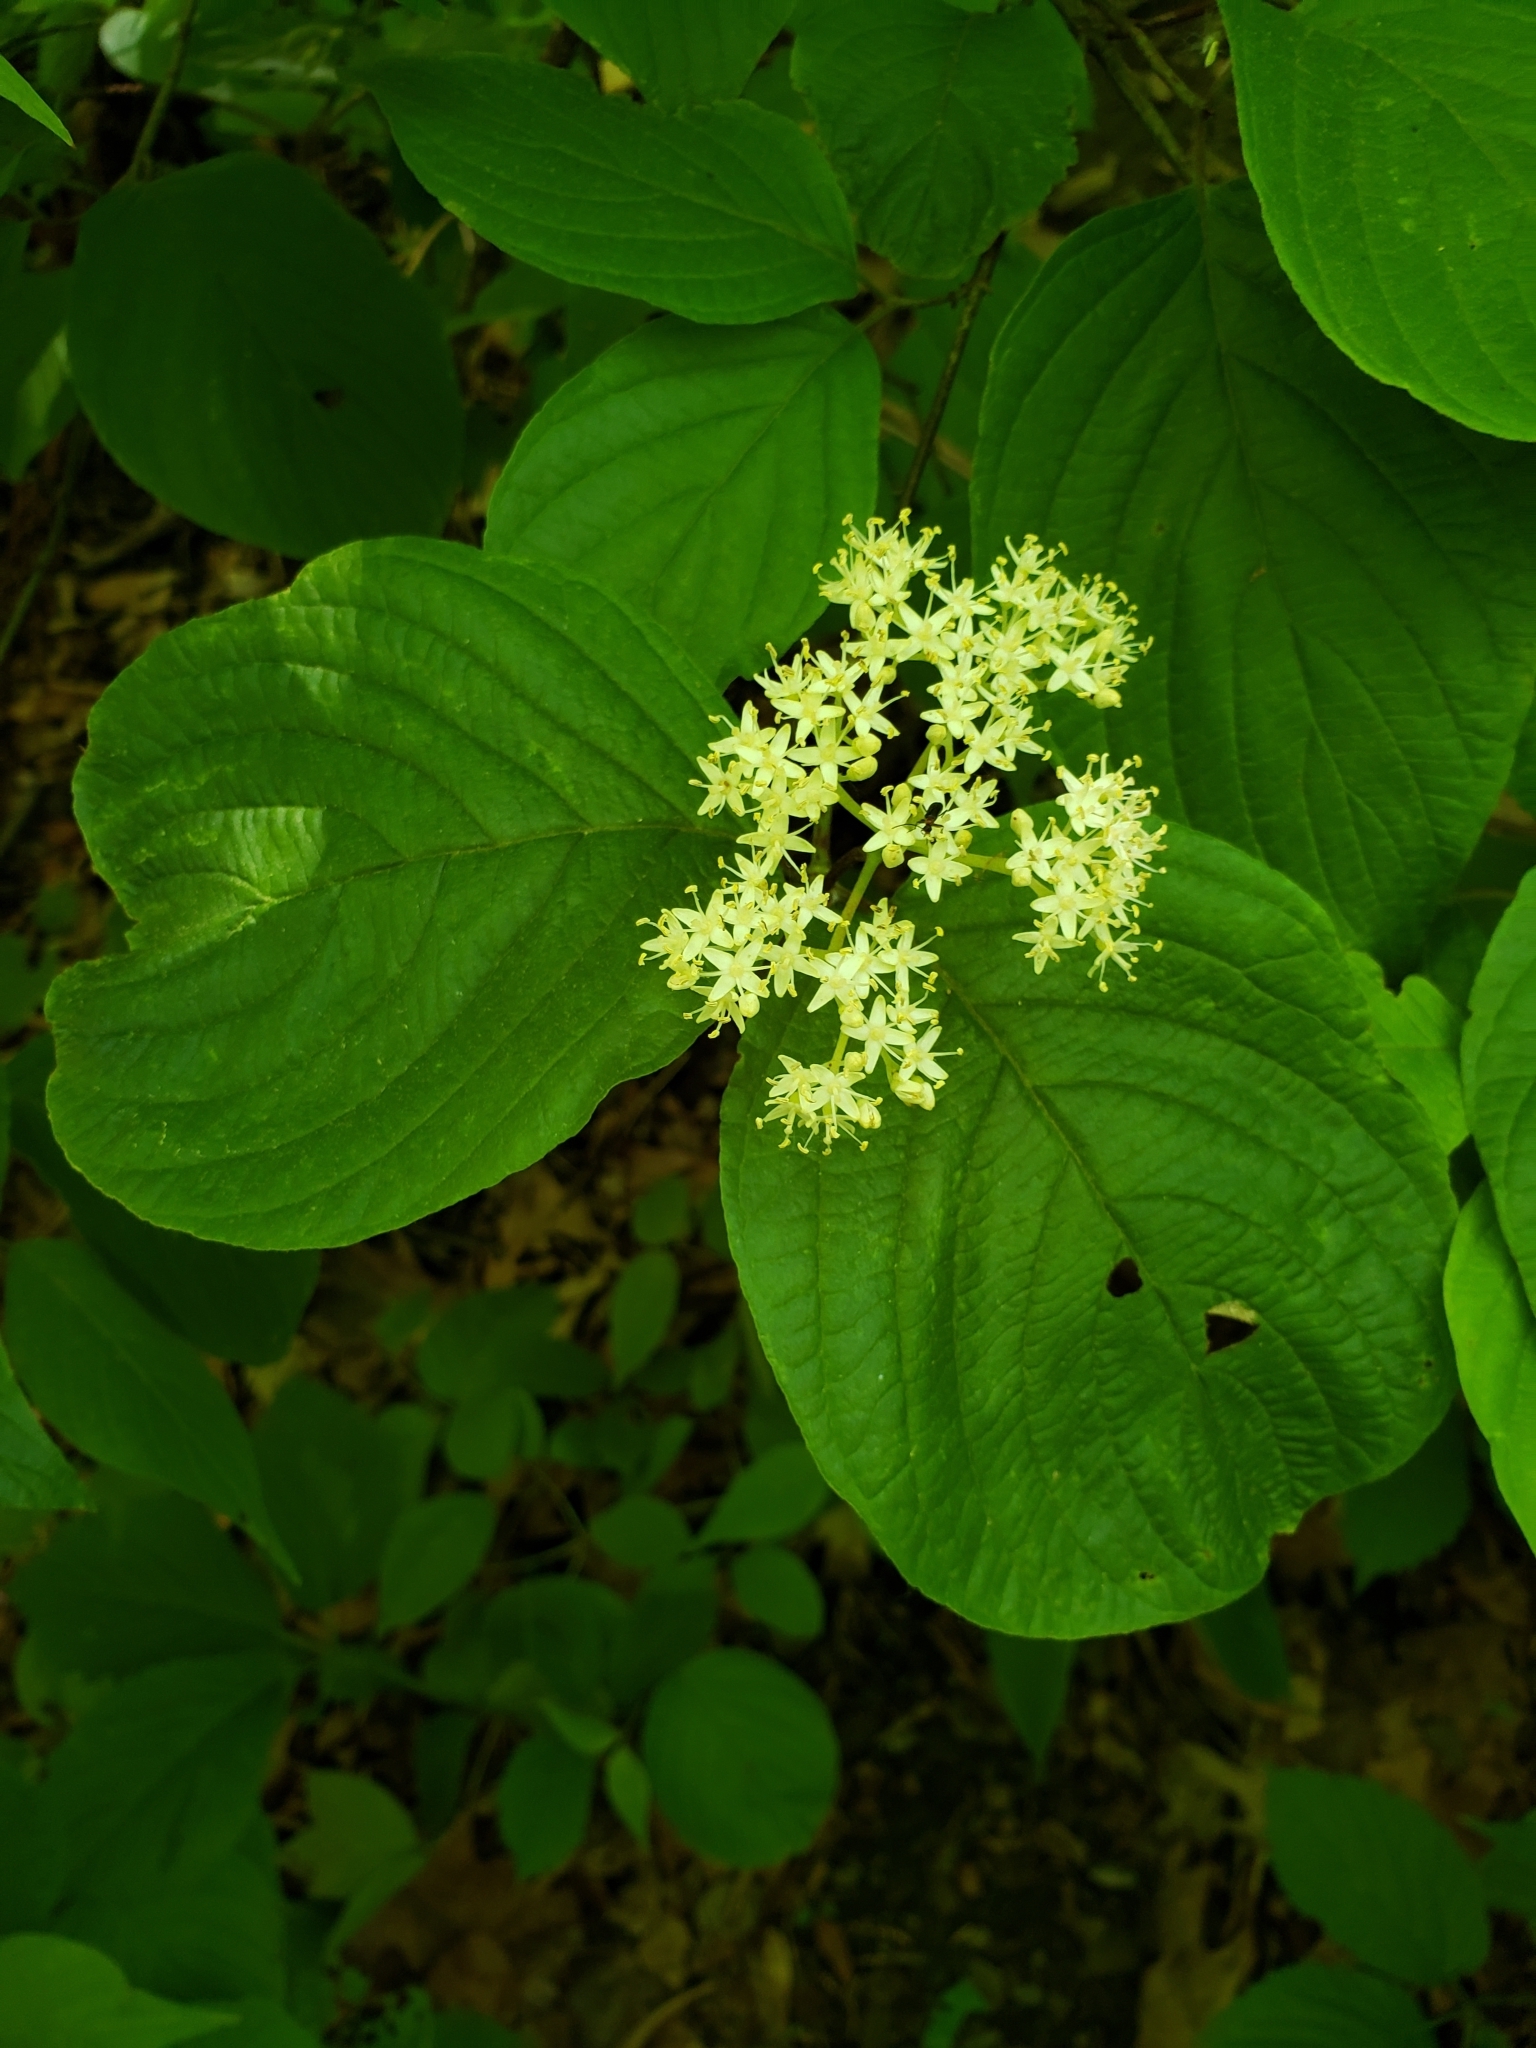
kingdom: Plantae
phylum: Tracheophyta
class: Magnoliopsida
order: Cornales
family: Cornaceae
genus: Cornus
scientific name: Cornus rugosa
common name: Round-leaf dogwood
